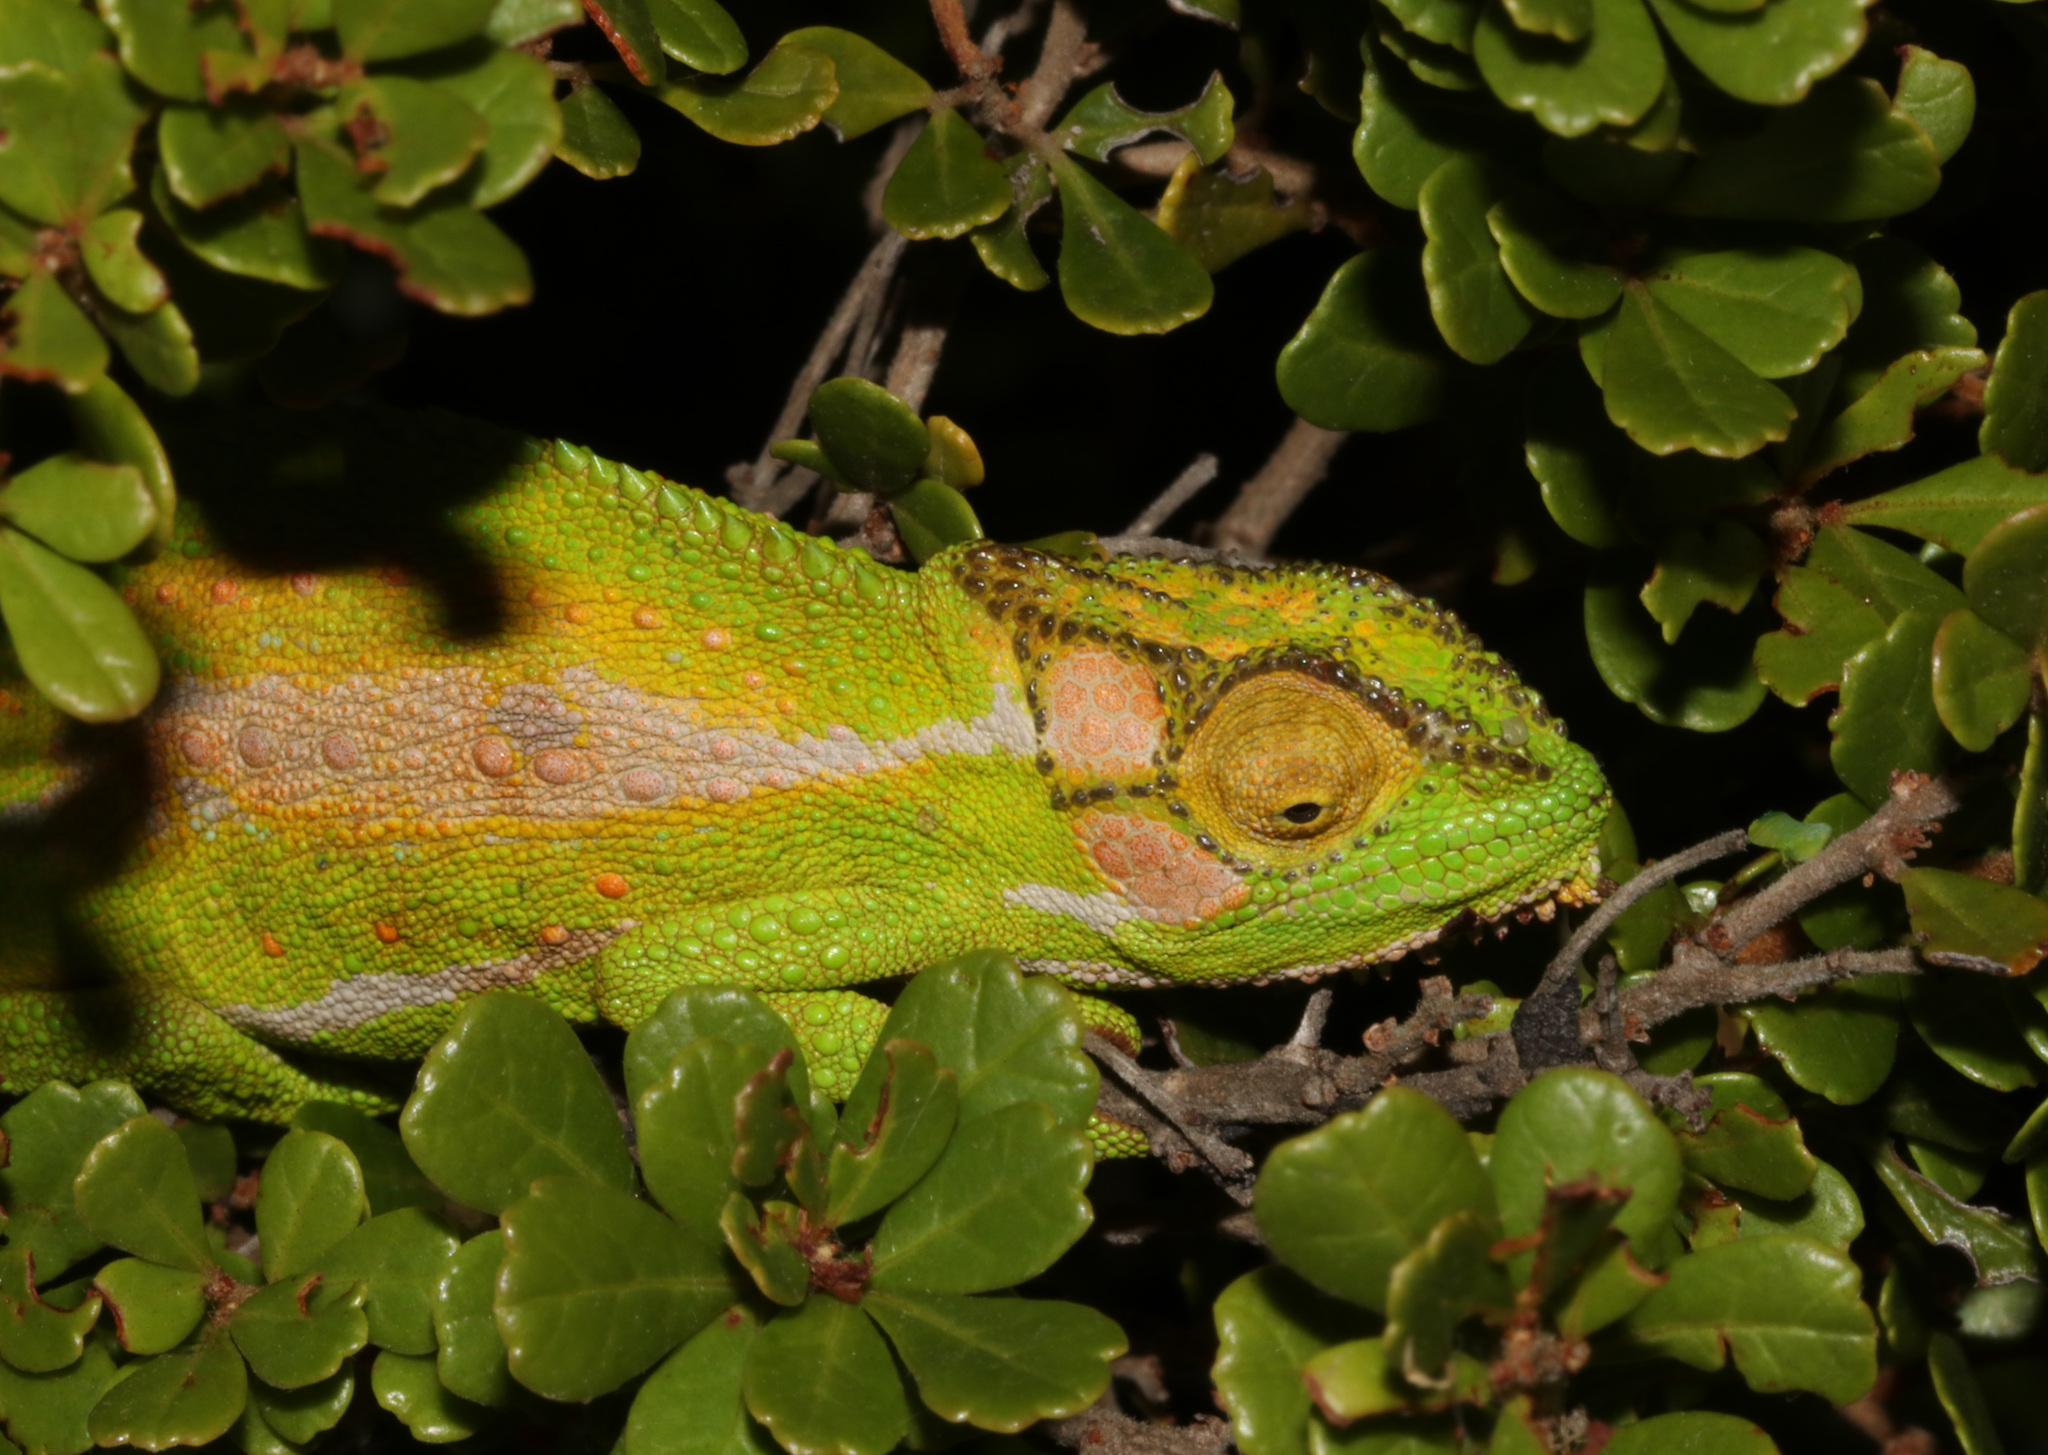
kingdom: Animalia
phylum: Chordata
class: Squamata
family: Chamaeleonidae
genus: Bradypodion
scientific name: Bradypodion pumilum
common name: Cape dwarf chameleon
